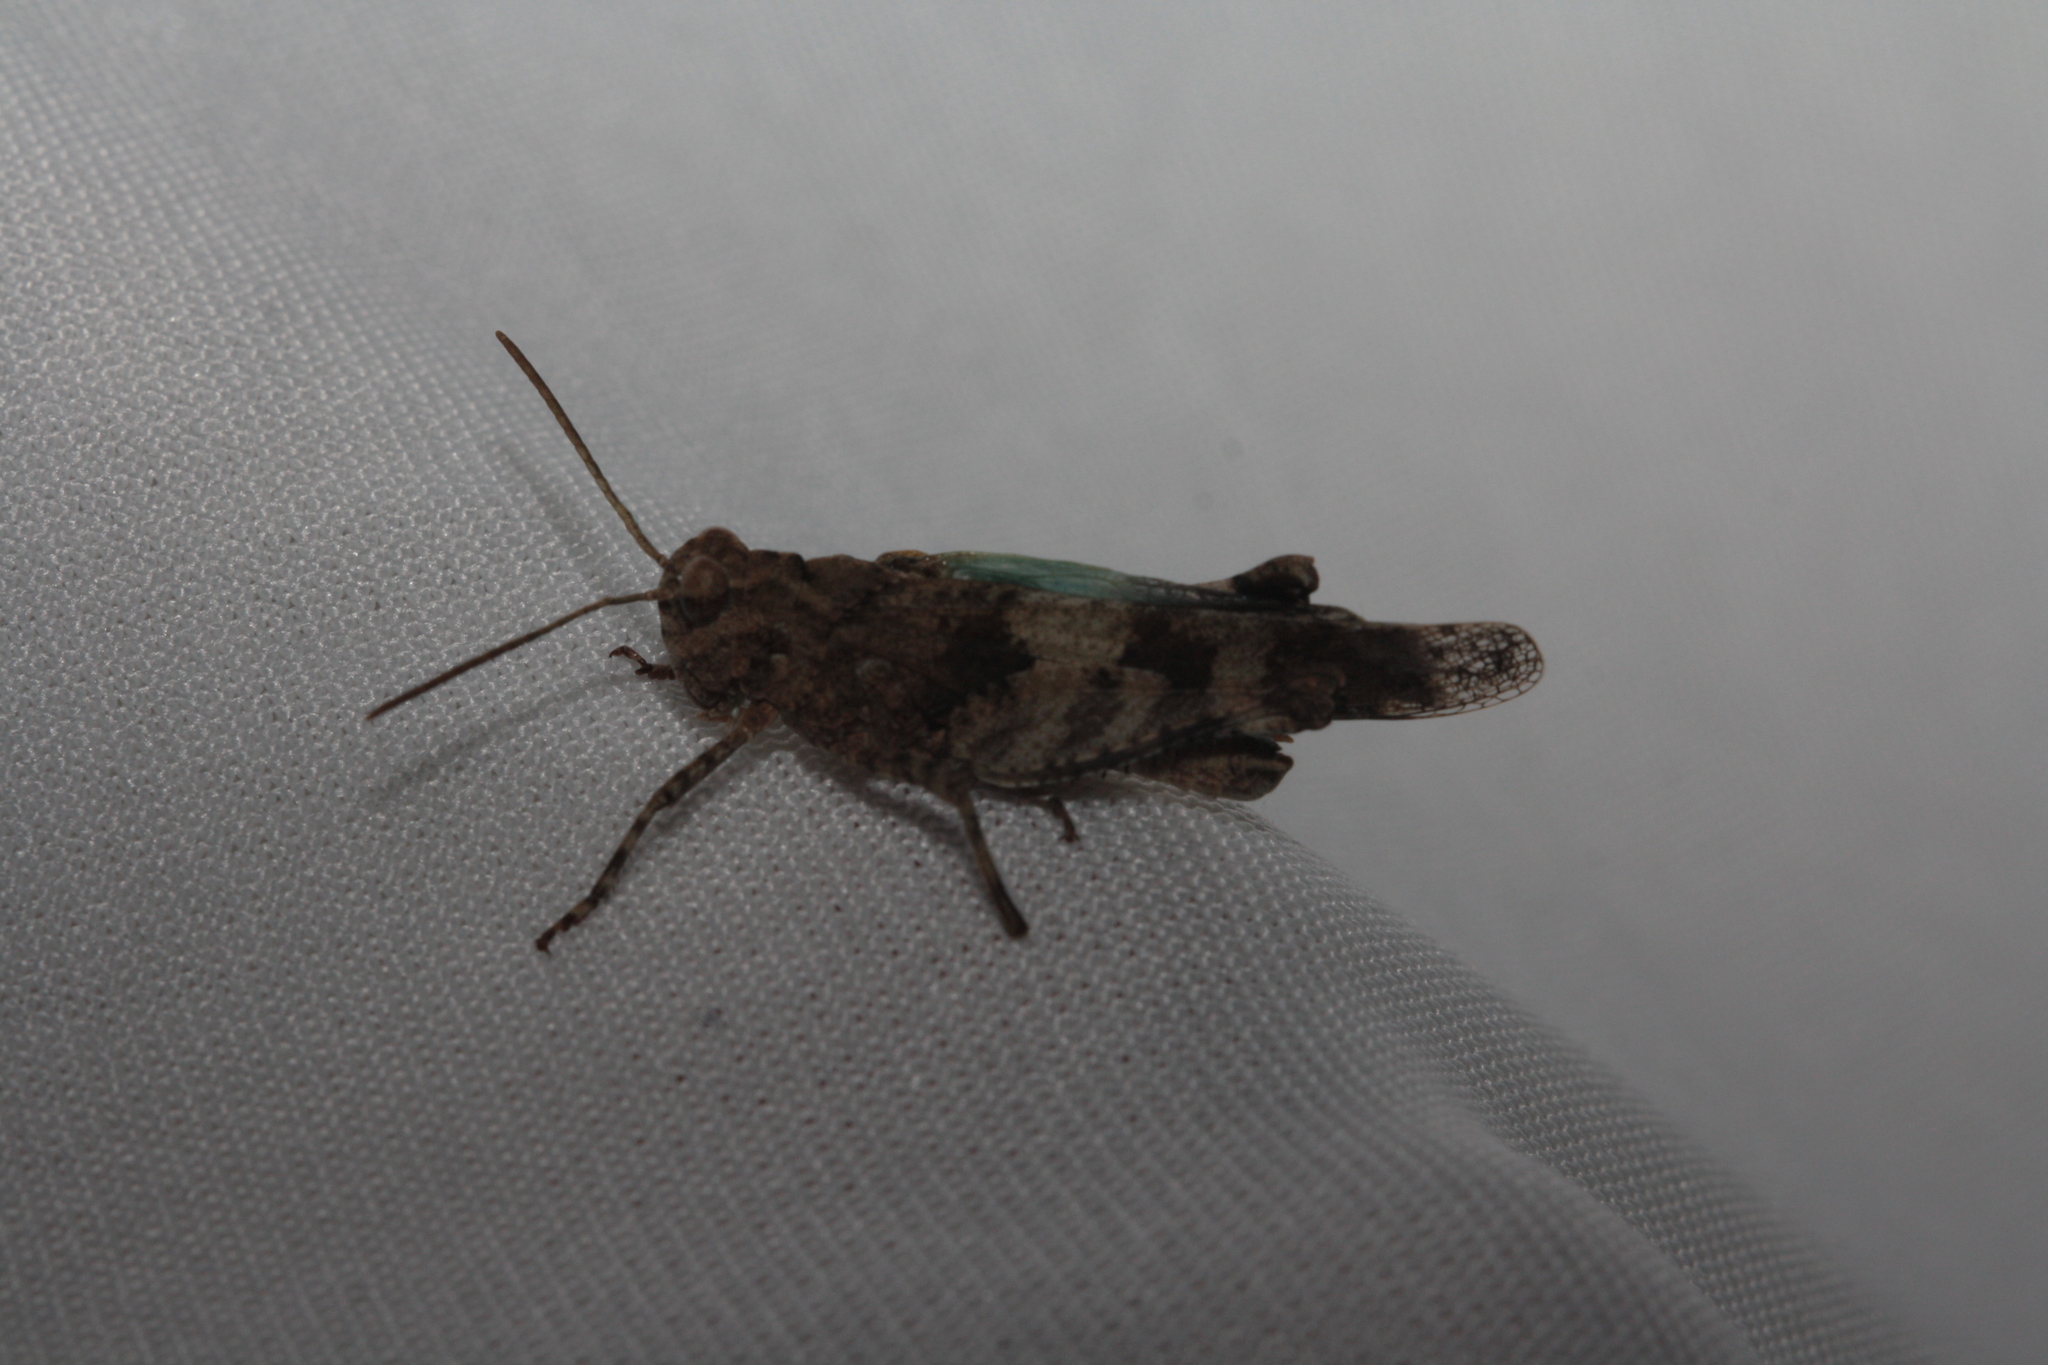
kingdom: Animalia
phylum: Arthropoda
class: Insecta
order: Orthoptera
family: Acrididae
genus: Oedipoda
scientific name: Oedipoda caerulescens
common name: Blue-winged grasshopper
